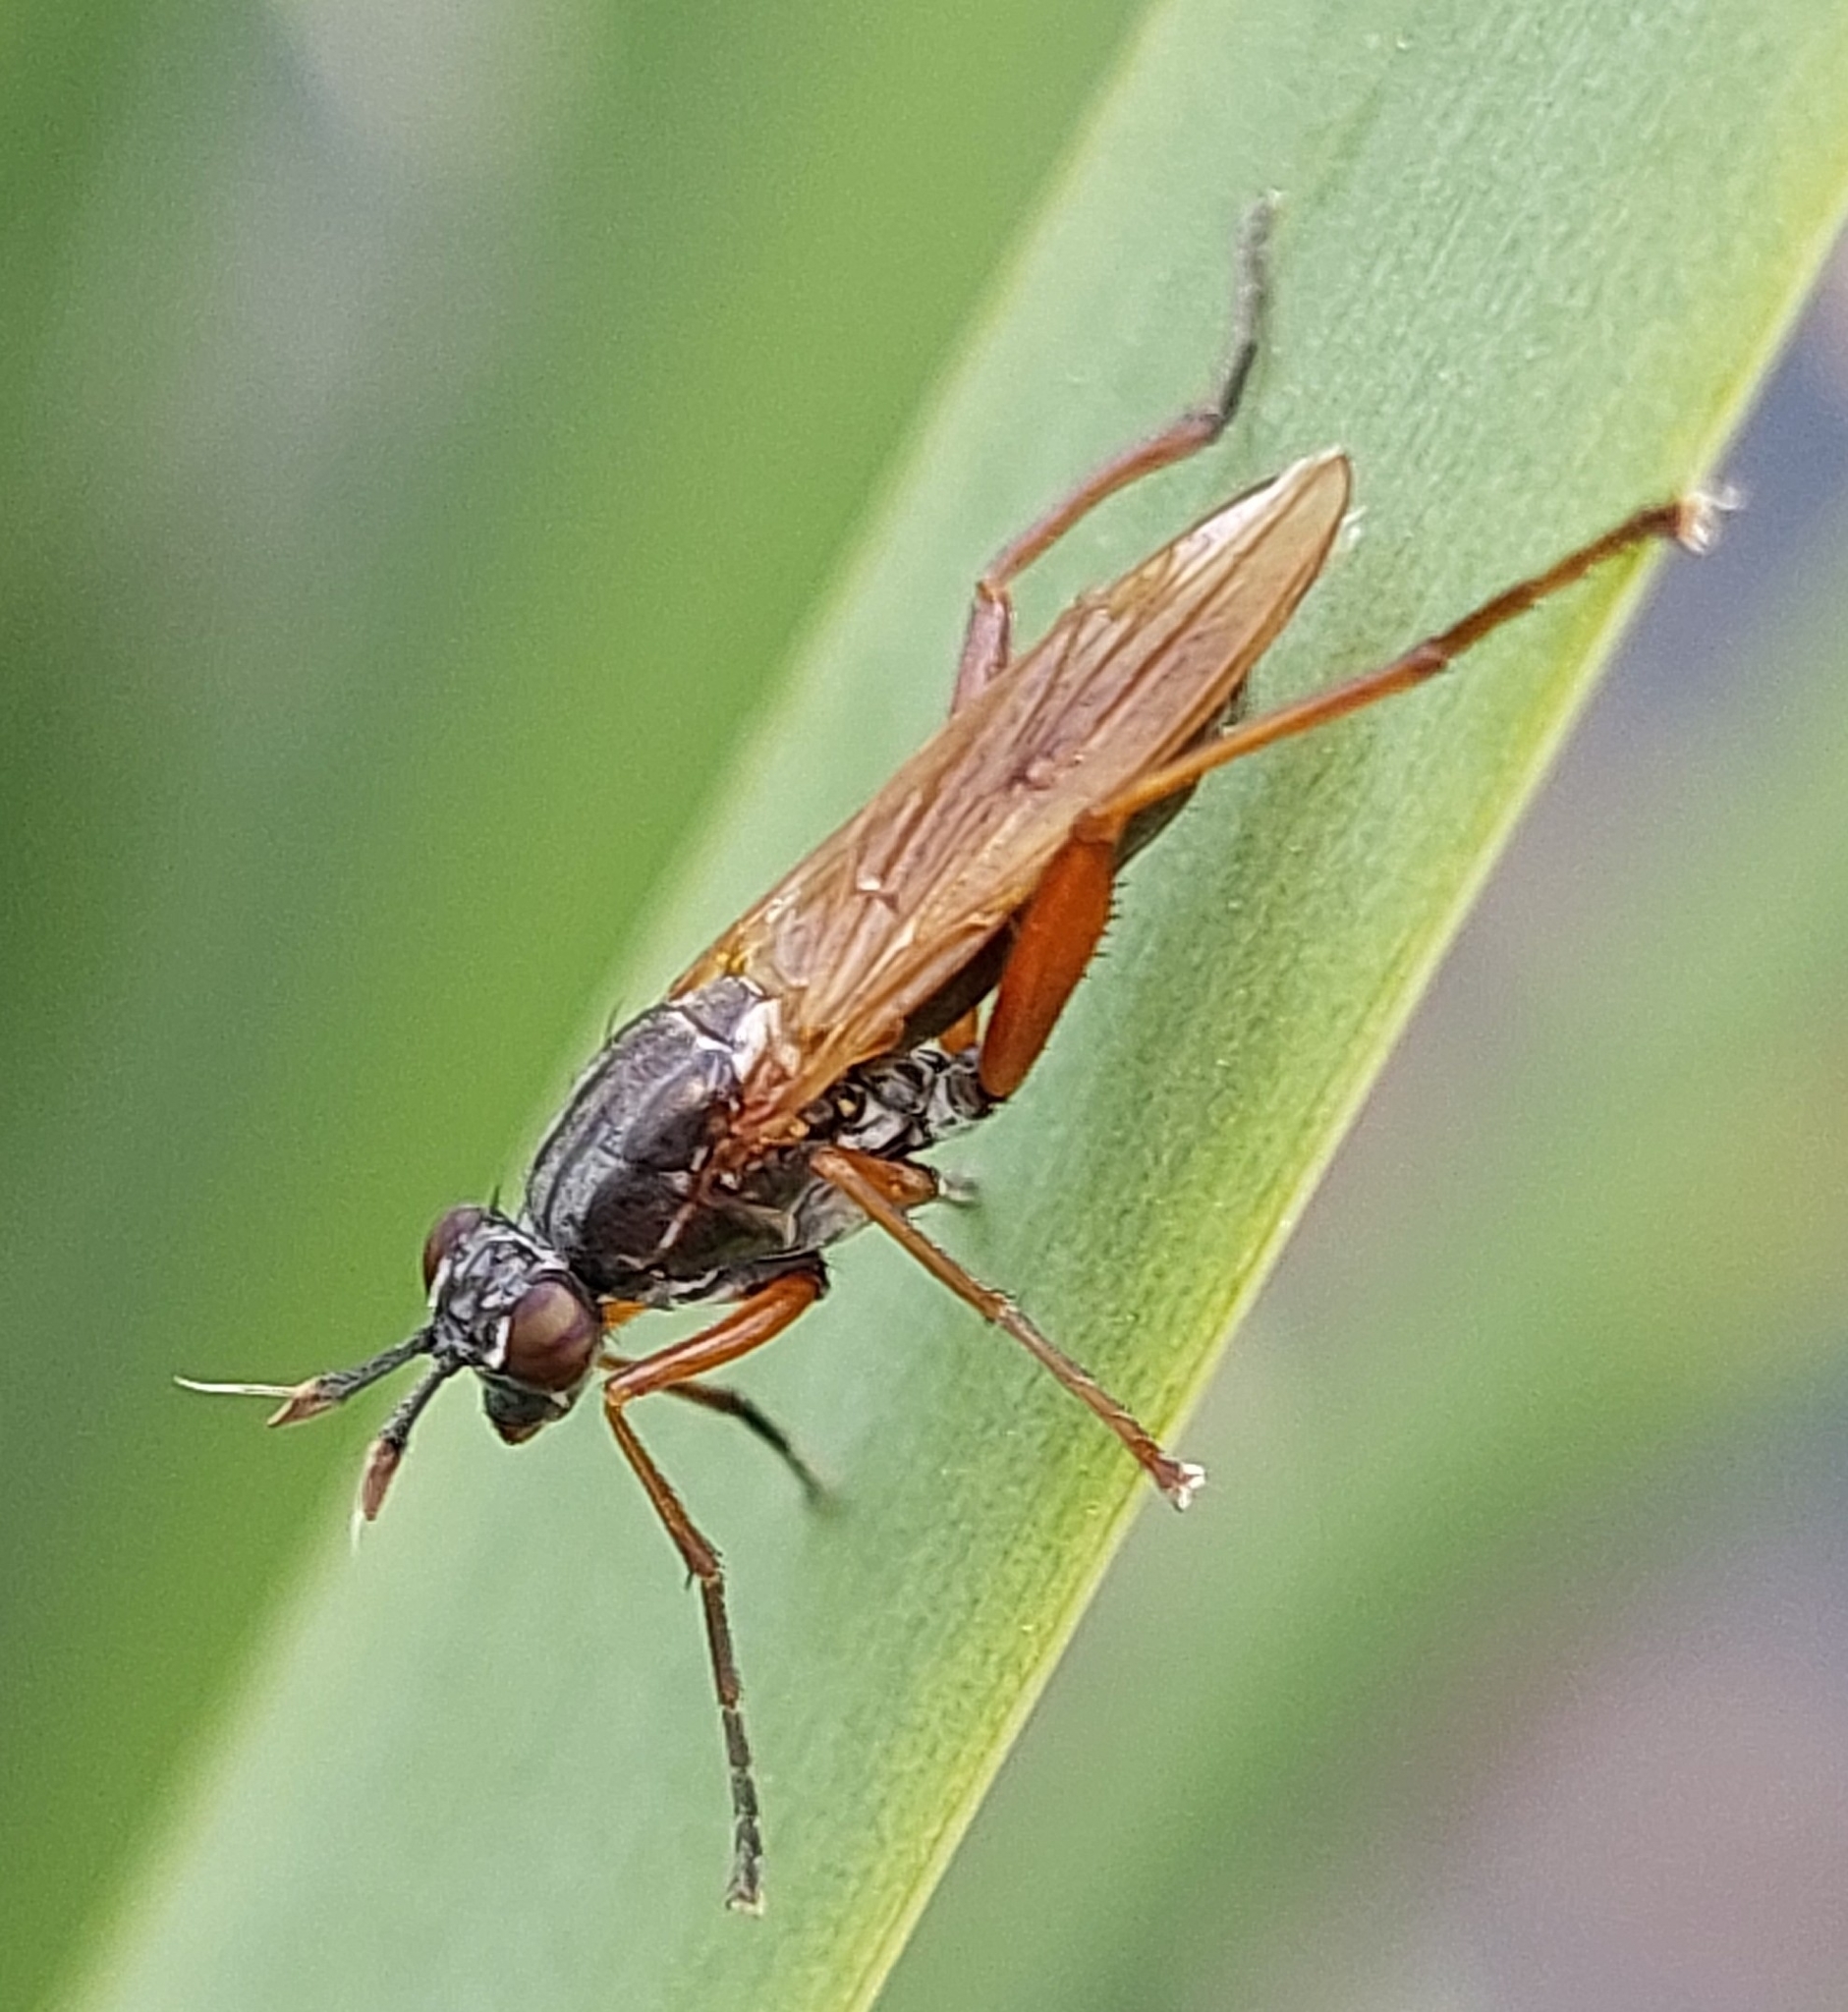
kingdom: Animalia
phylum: Arthropoda
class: Insecta
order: Diptera
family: Sciomyzidae
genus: Sepedon
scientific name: Sepedon sphegea
